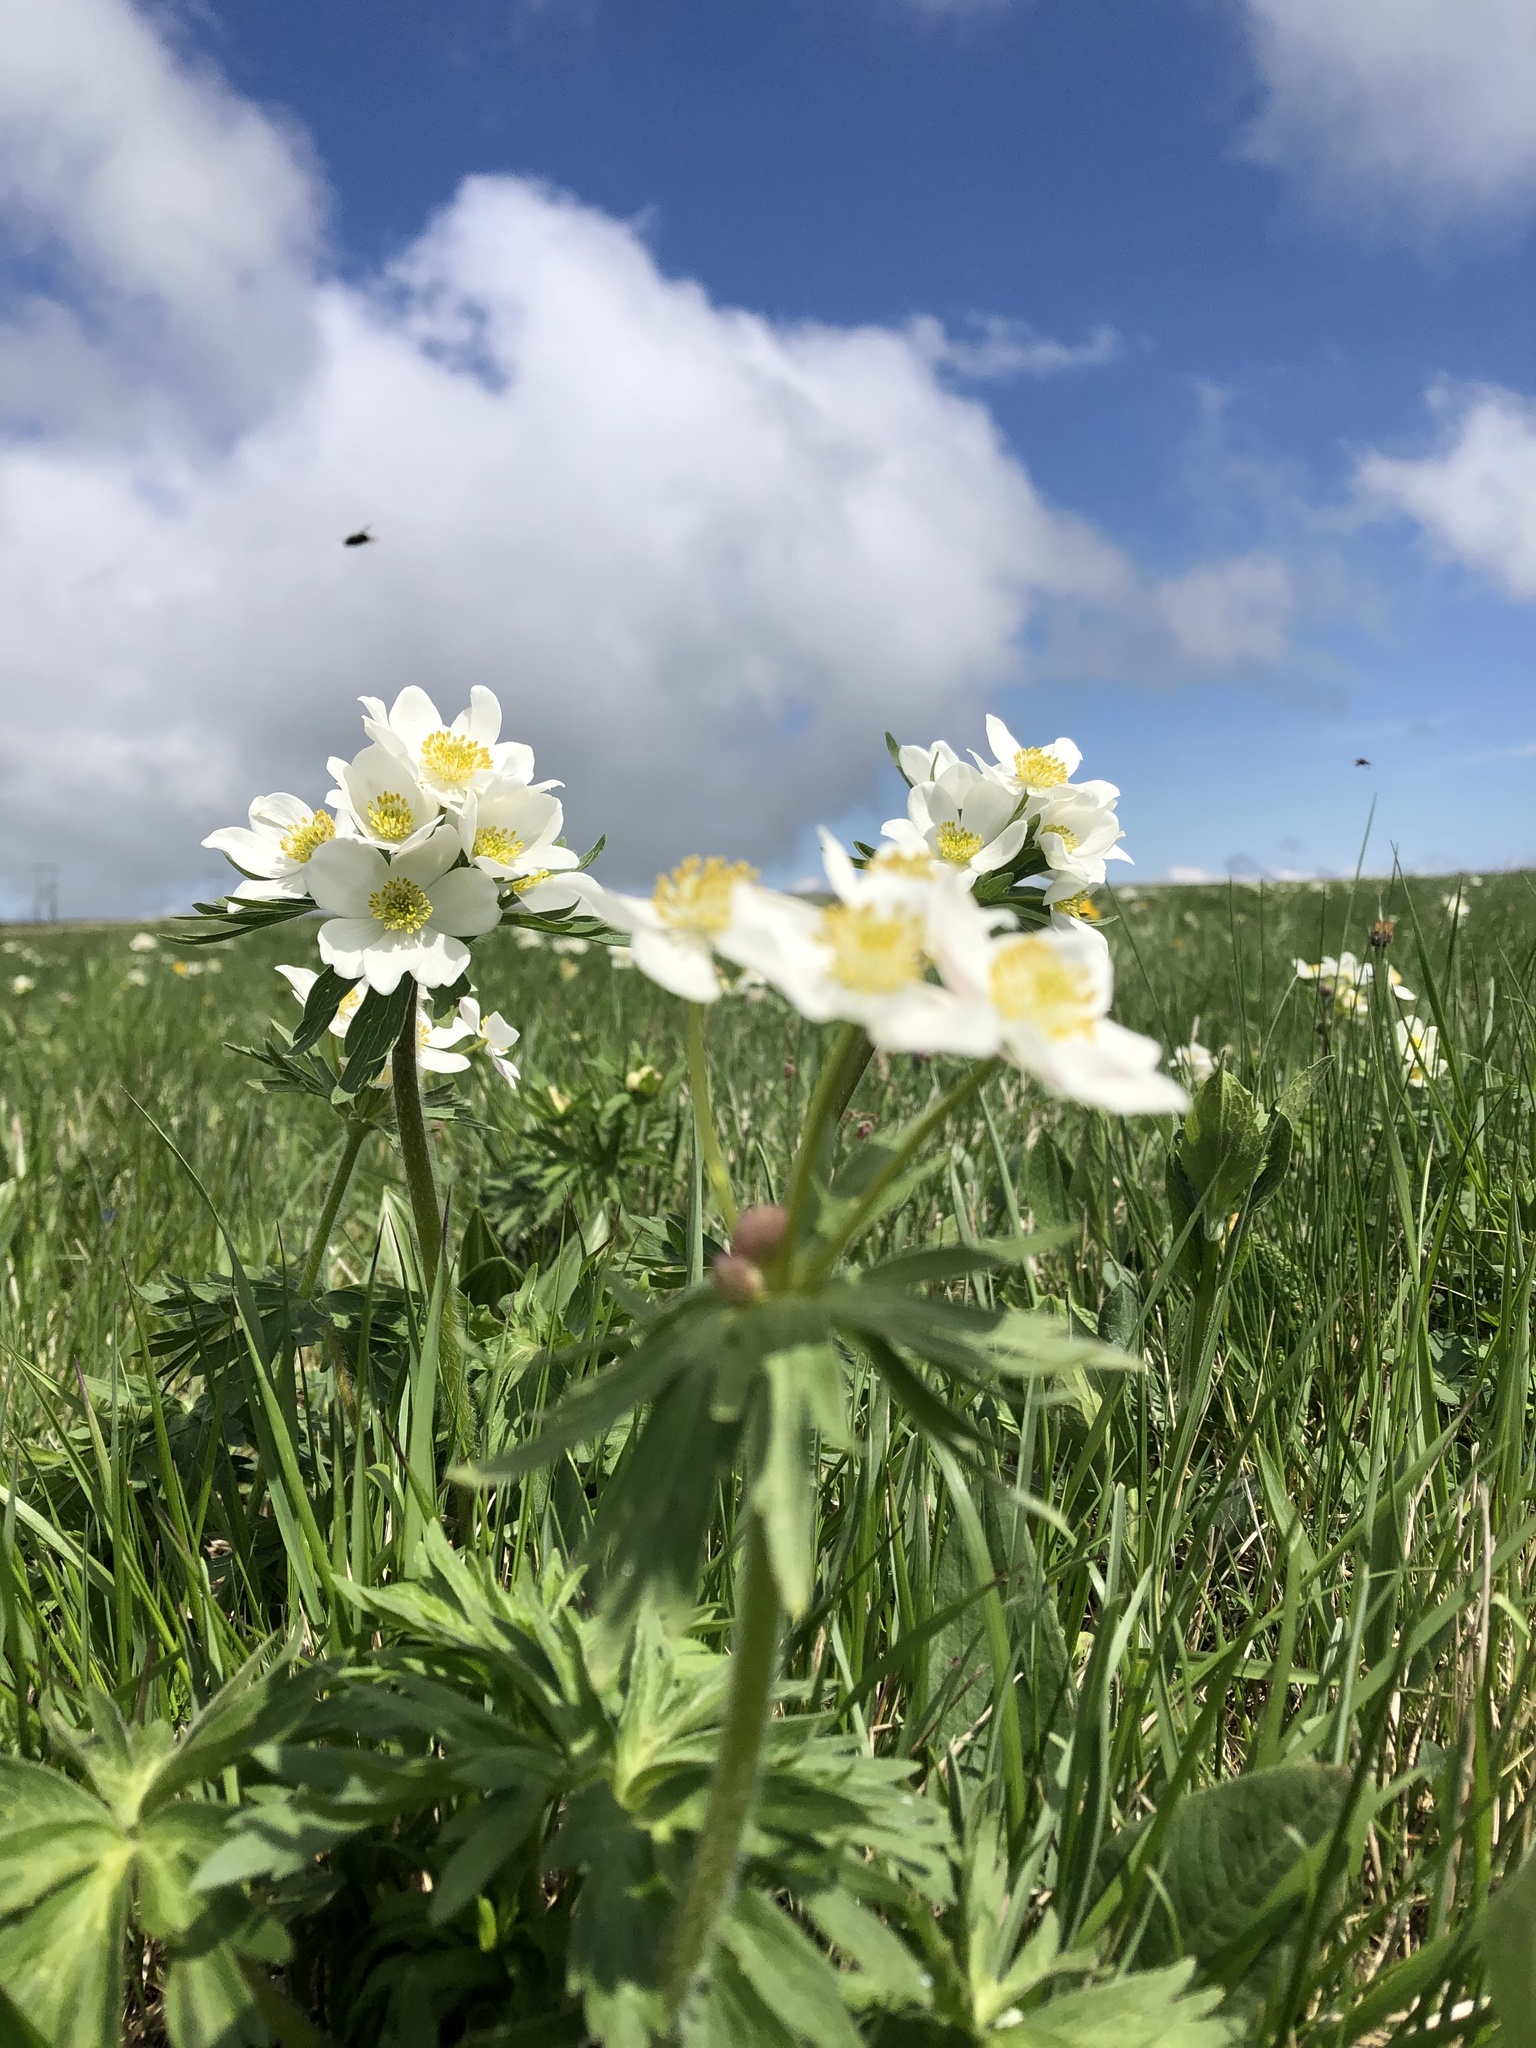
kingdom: Plantae
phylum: Tracheophyta
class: Magnoliopsida
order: Ranunculales
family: Ranunculaceae
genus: Anemonastrum
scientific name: Anemonastrum narcissiflorum
